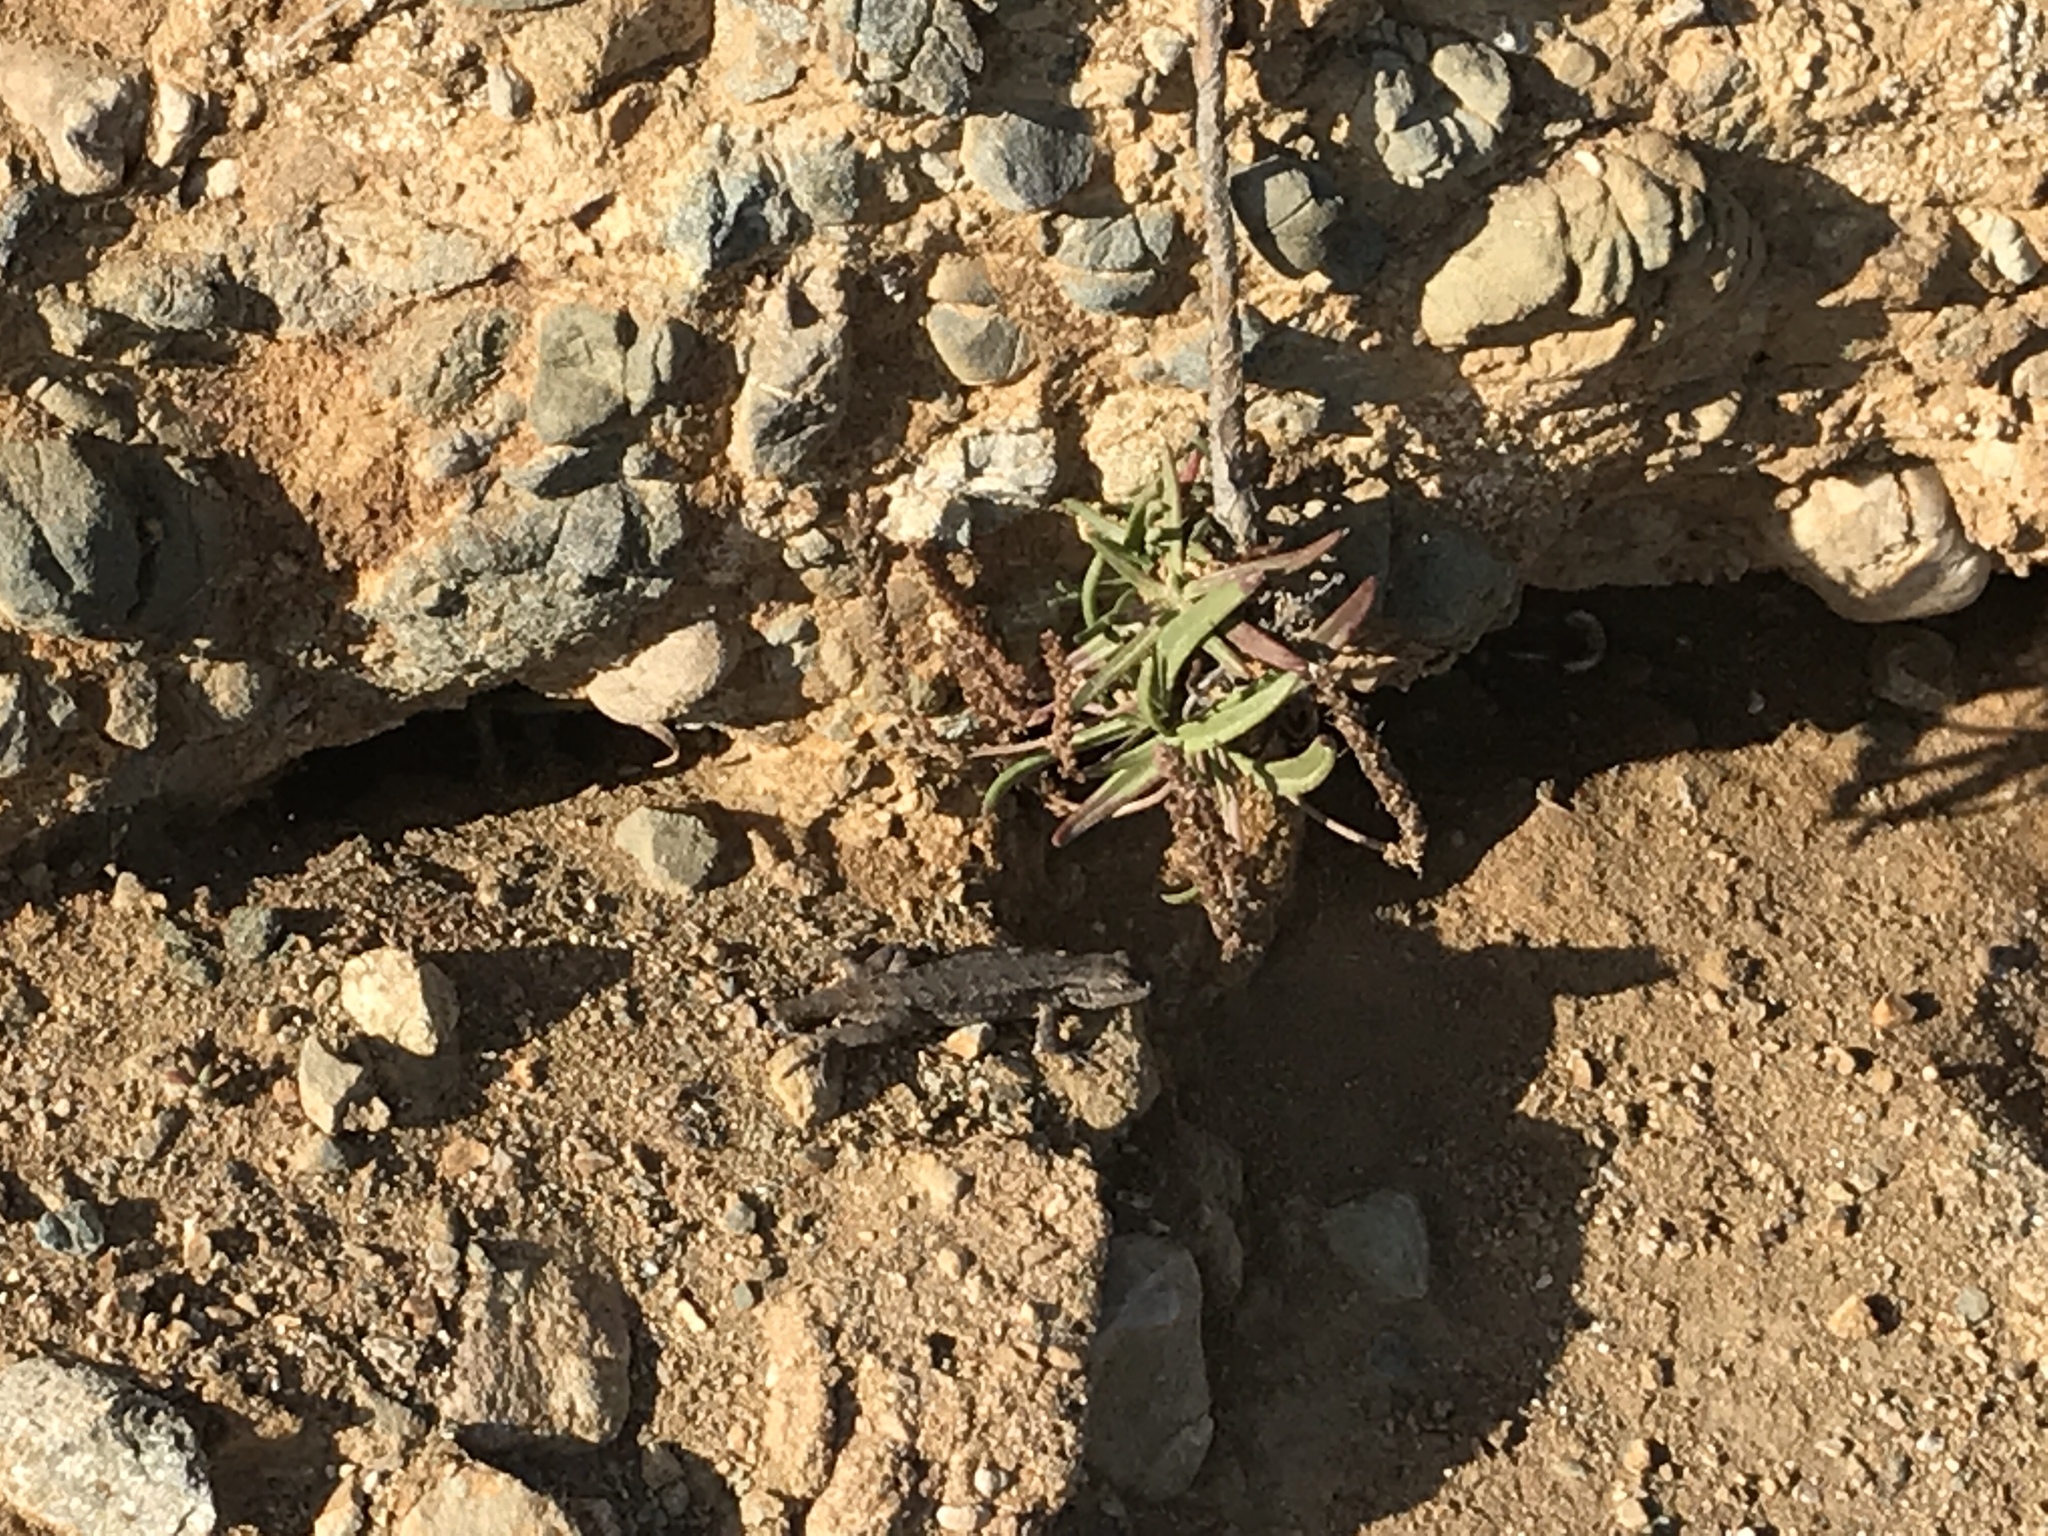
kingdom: Plantae
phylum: Tracheophyta
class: Magnoliopsida
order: Lamiales
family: Plantaginaceae
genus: Plantago
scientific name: Plantago maritima
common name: Sea plantain
